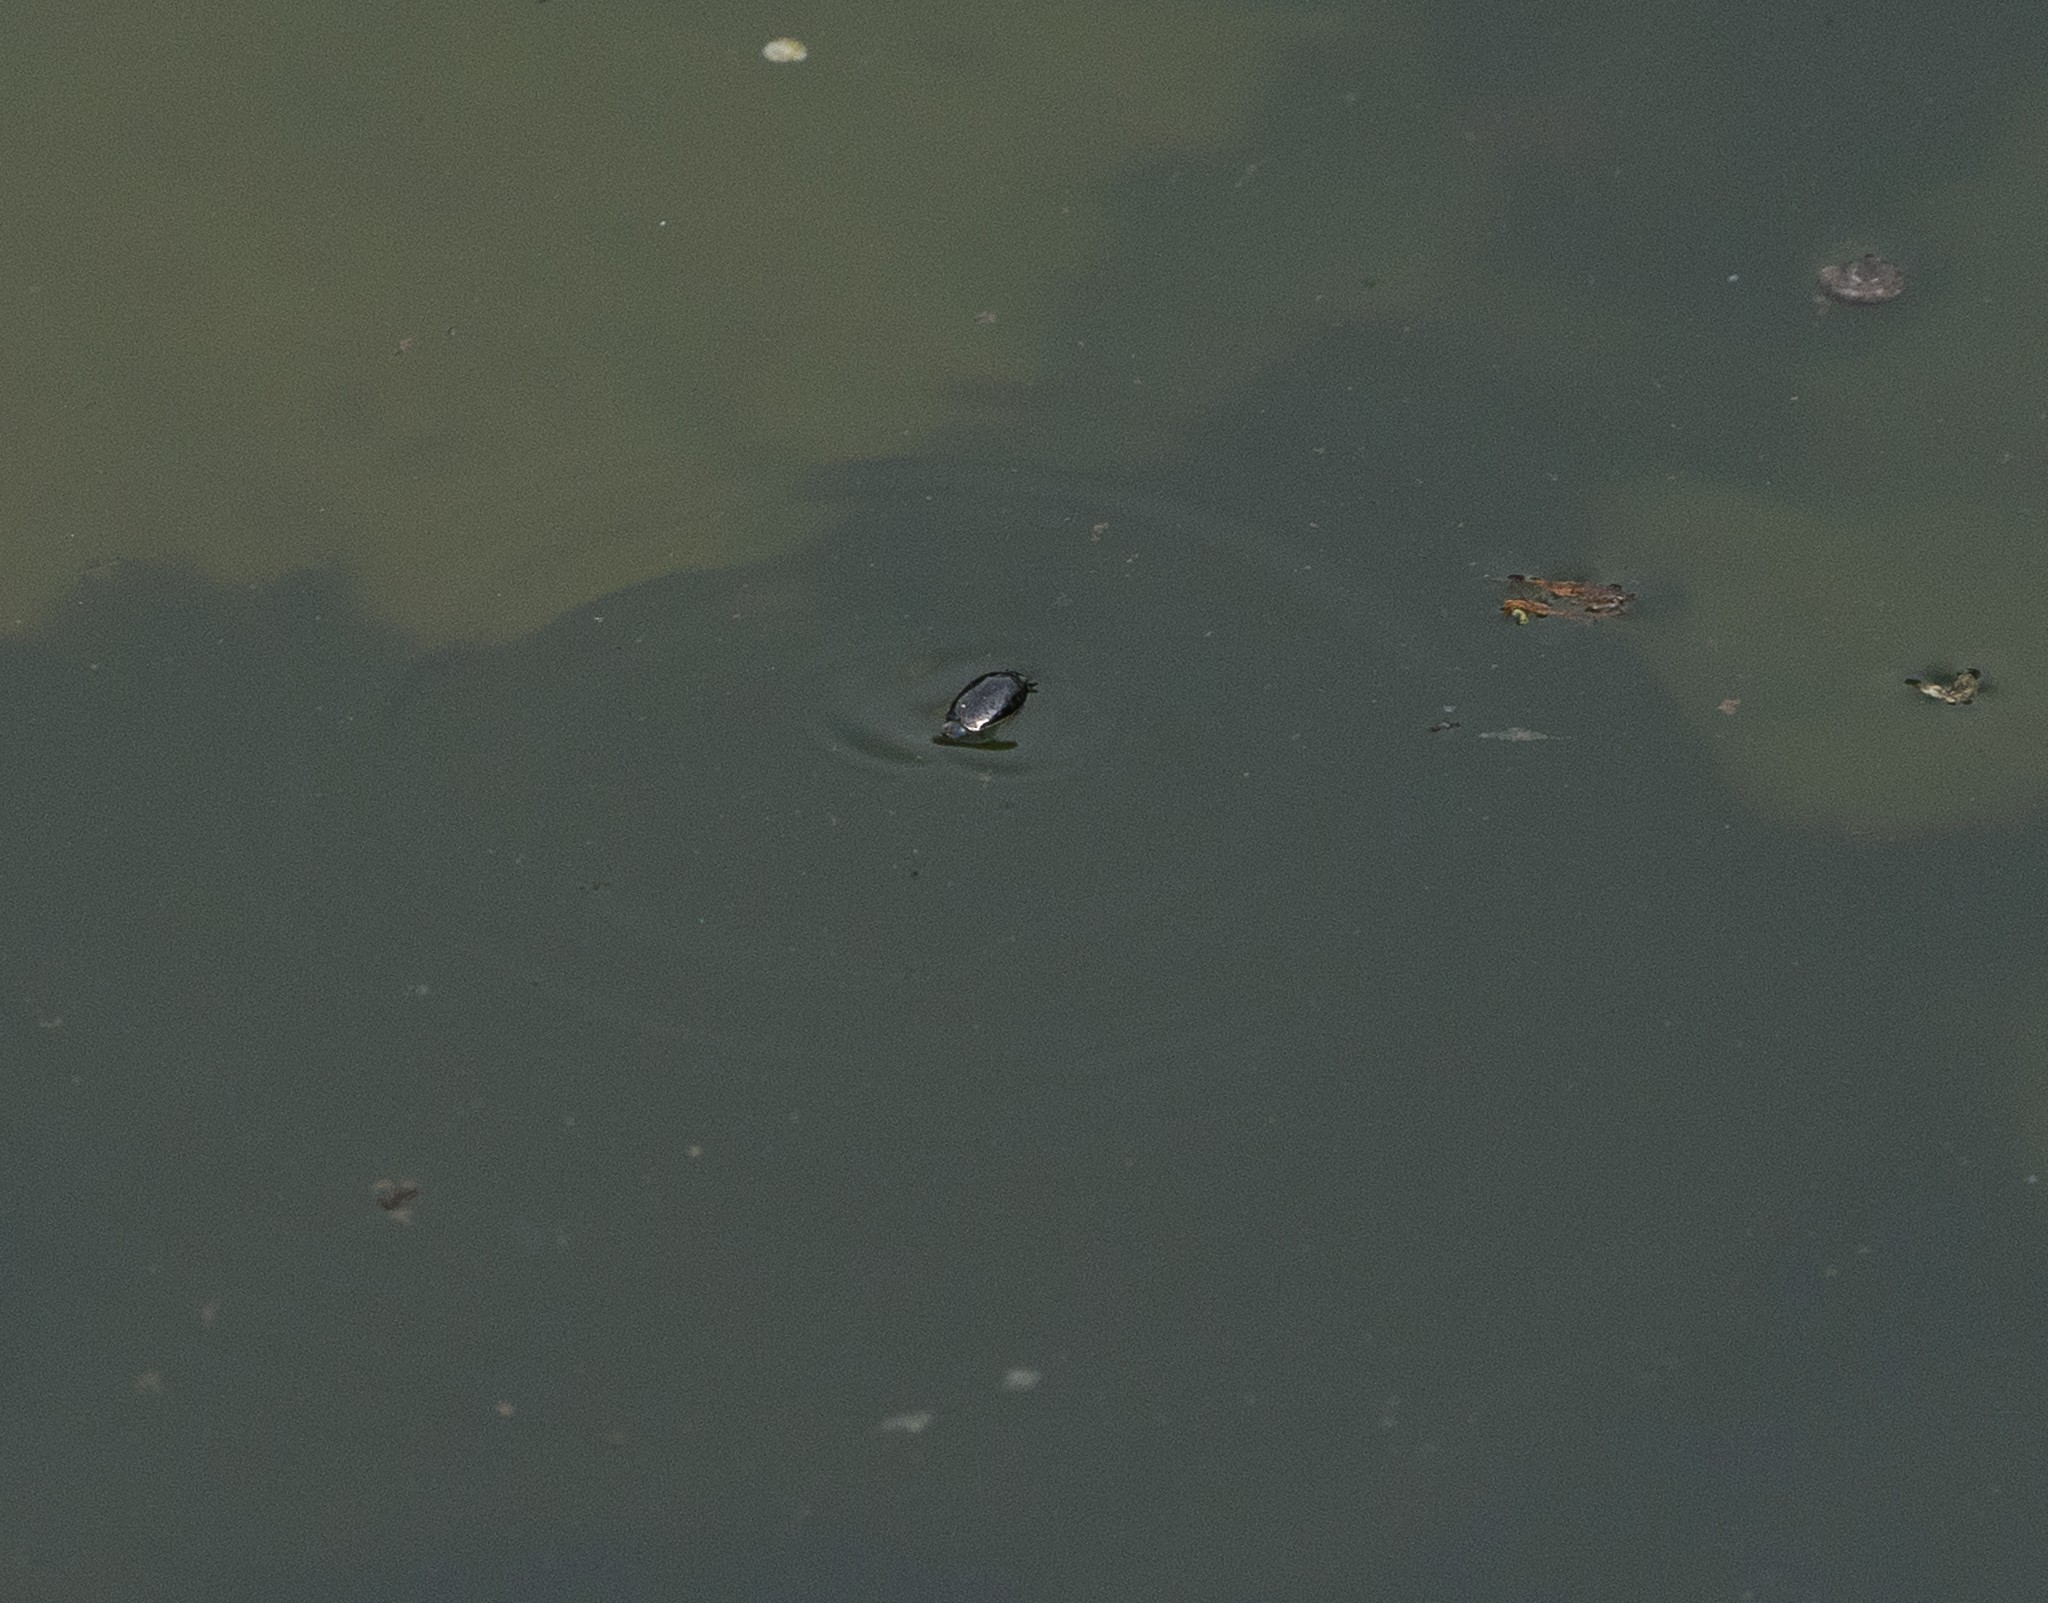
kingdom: Animalia
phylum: Arthropoda
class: Insecta
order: Coleoptera
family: Gyrinidae
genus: Gyrinus
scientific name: Gyrinus
